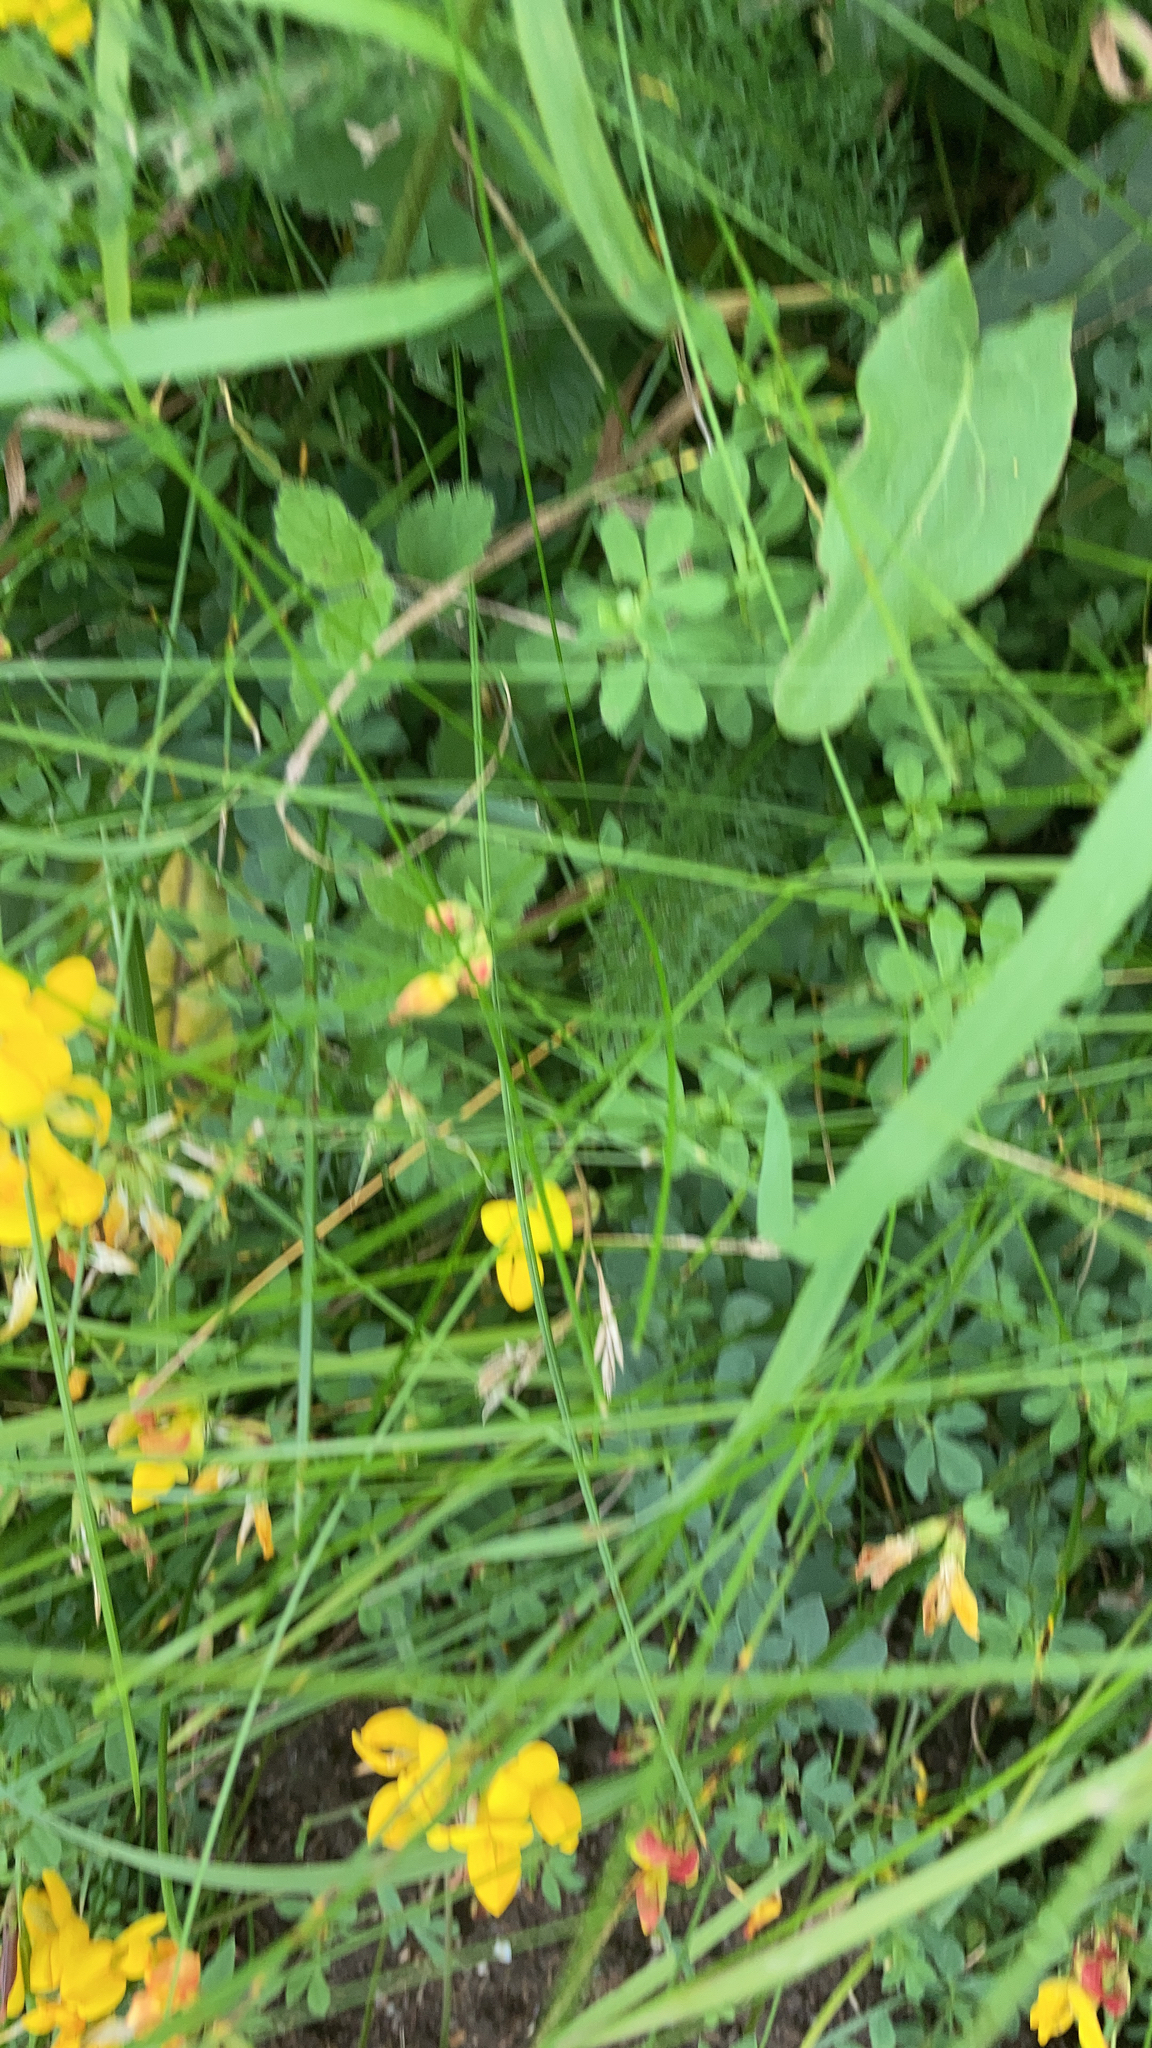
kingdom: Plantae
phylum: Tracheophyta
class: Magnoliopsida
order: Fabales
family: Fabaceae
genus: Lotus
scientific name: Lotus corniculatus
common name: Common bird's-foot-trefoil
